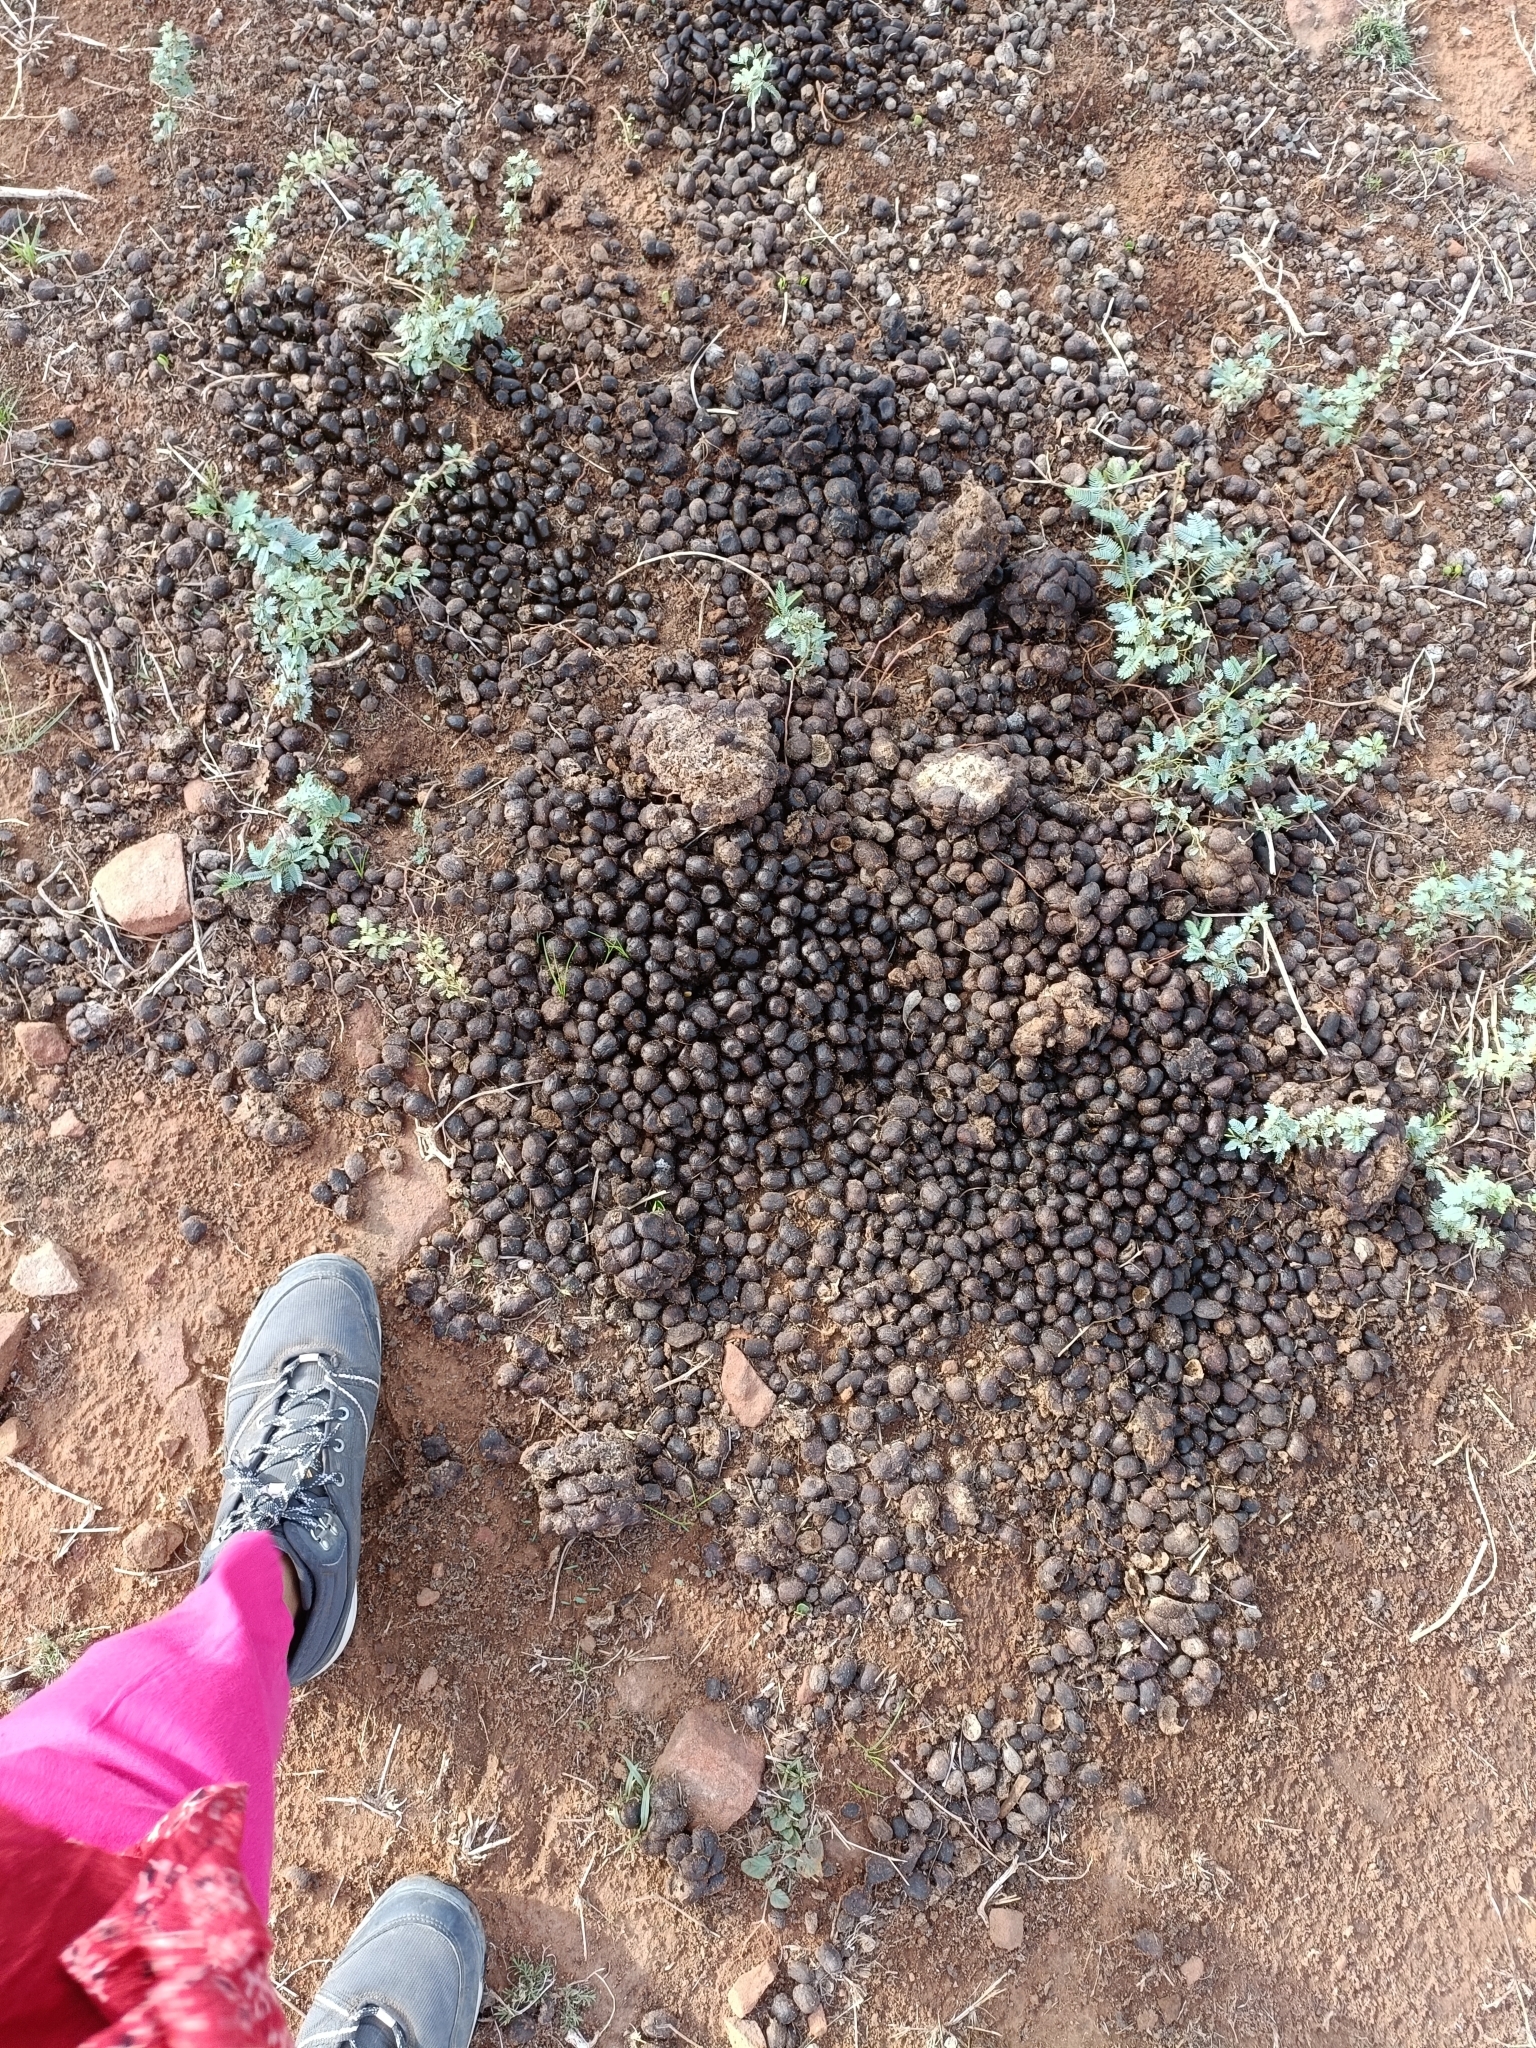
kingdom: Animalia
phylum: Chordata
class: Mammalia
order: Artiodactyla
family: Bovidae
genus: Boselaphus
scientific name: Boselaphus tragocamelus
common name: Nilgai
